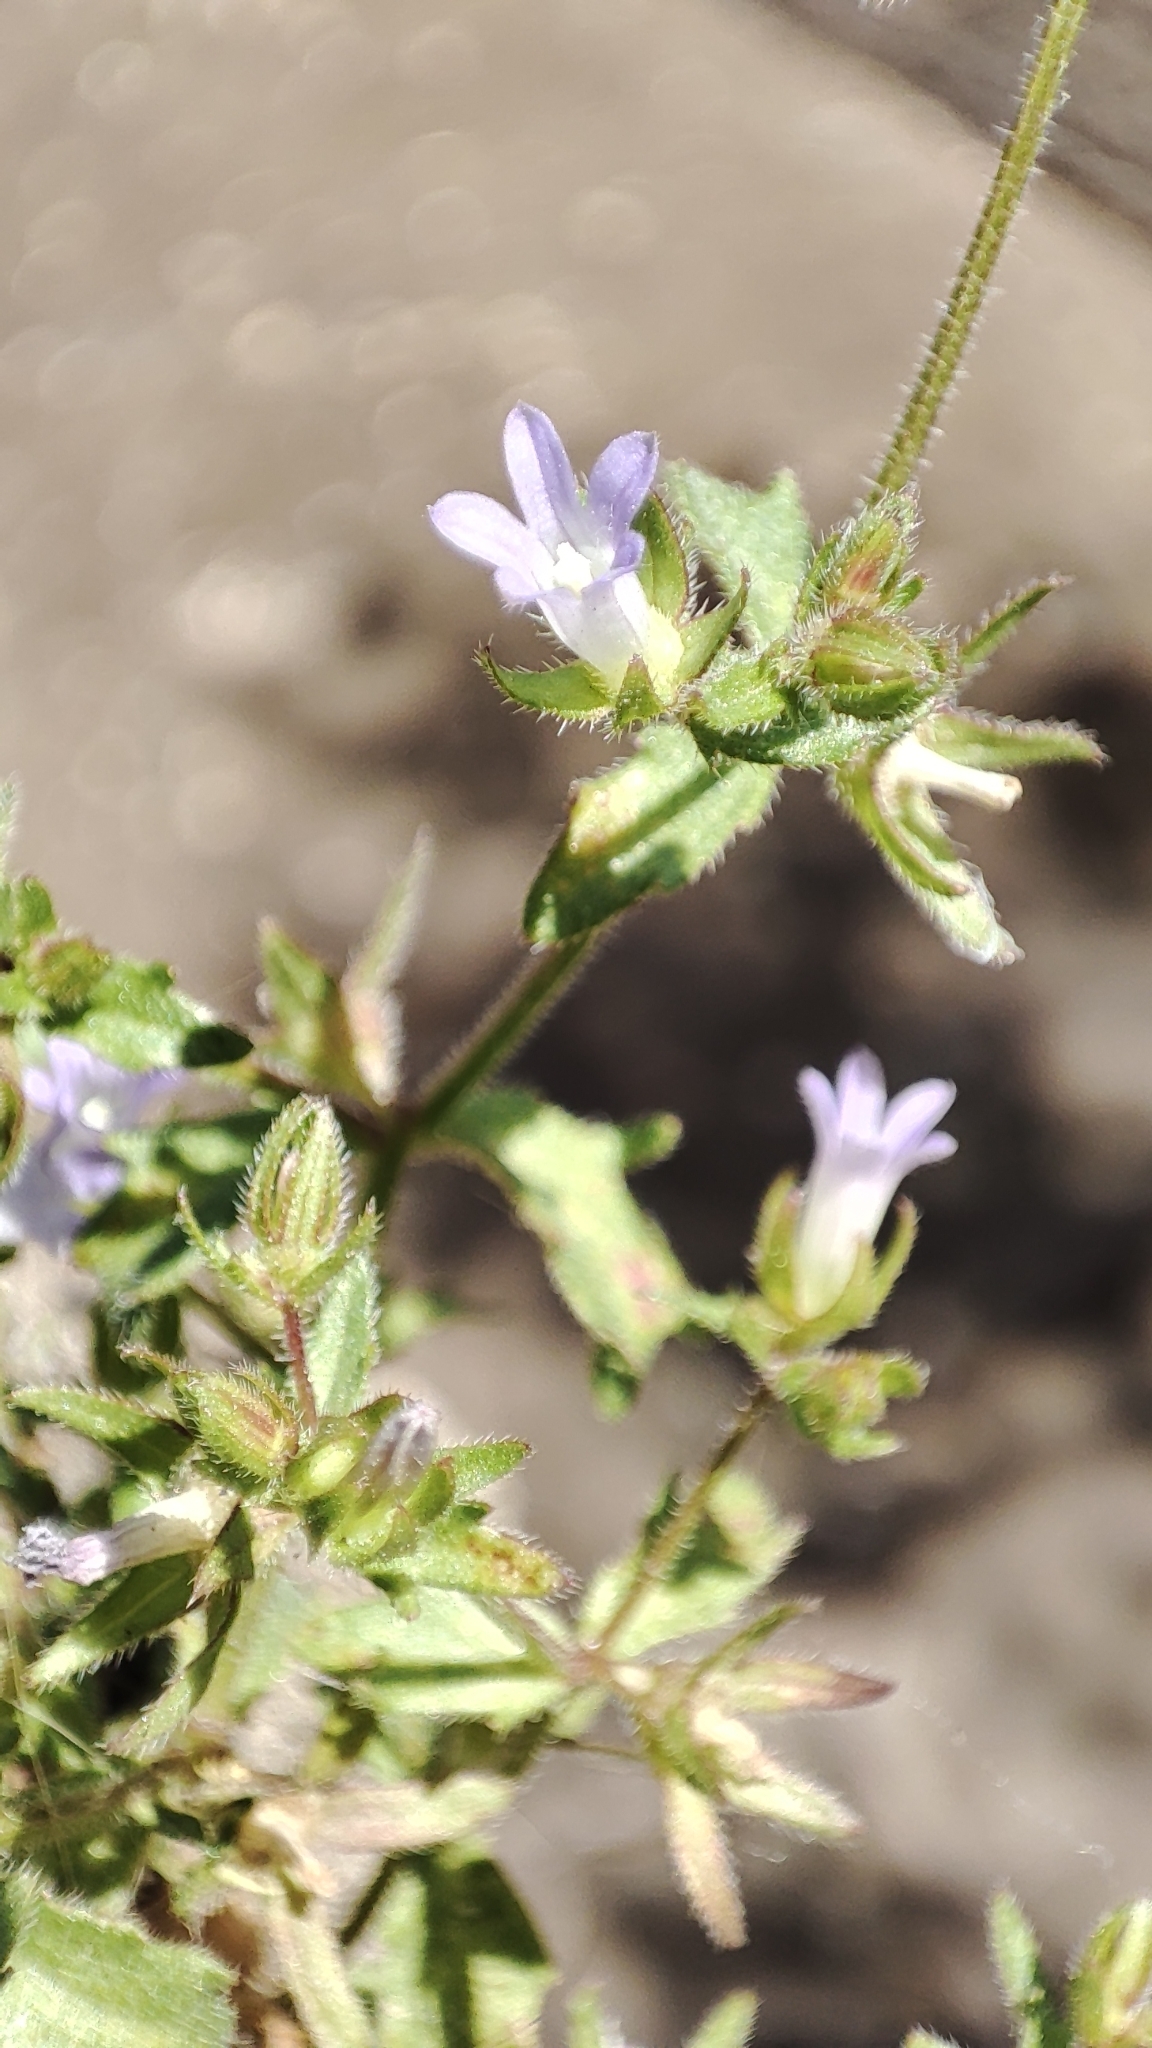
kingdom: Plantae
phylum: Tracheophyta
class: Magnoliopsida
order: Asterales
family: Campanulaceae
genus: Campanula
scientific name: Campanula erinus
